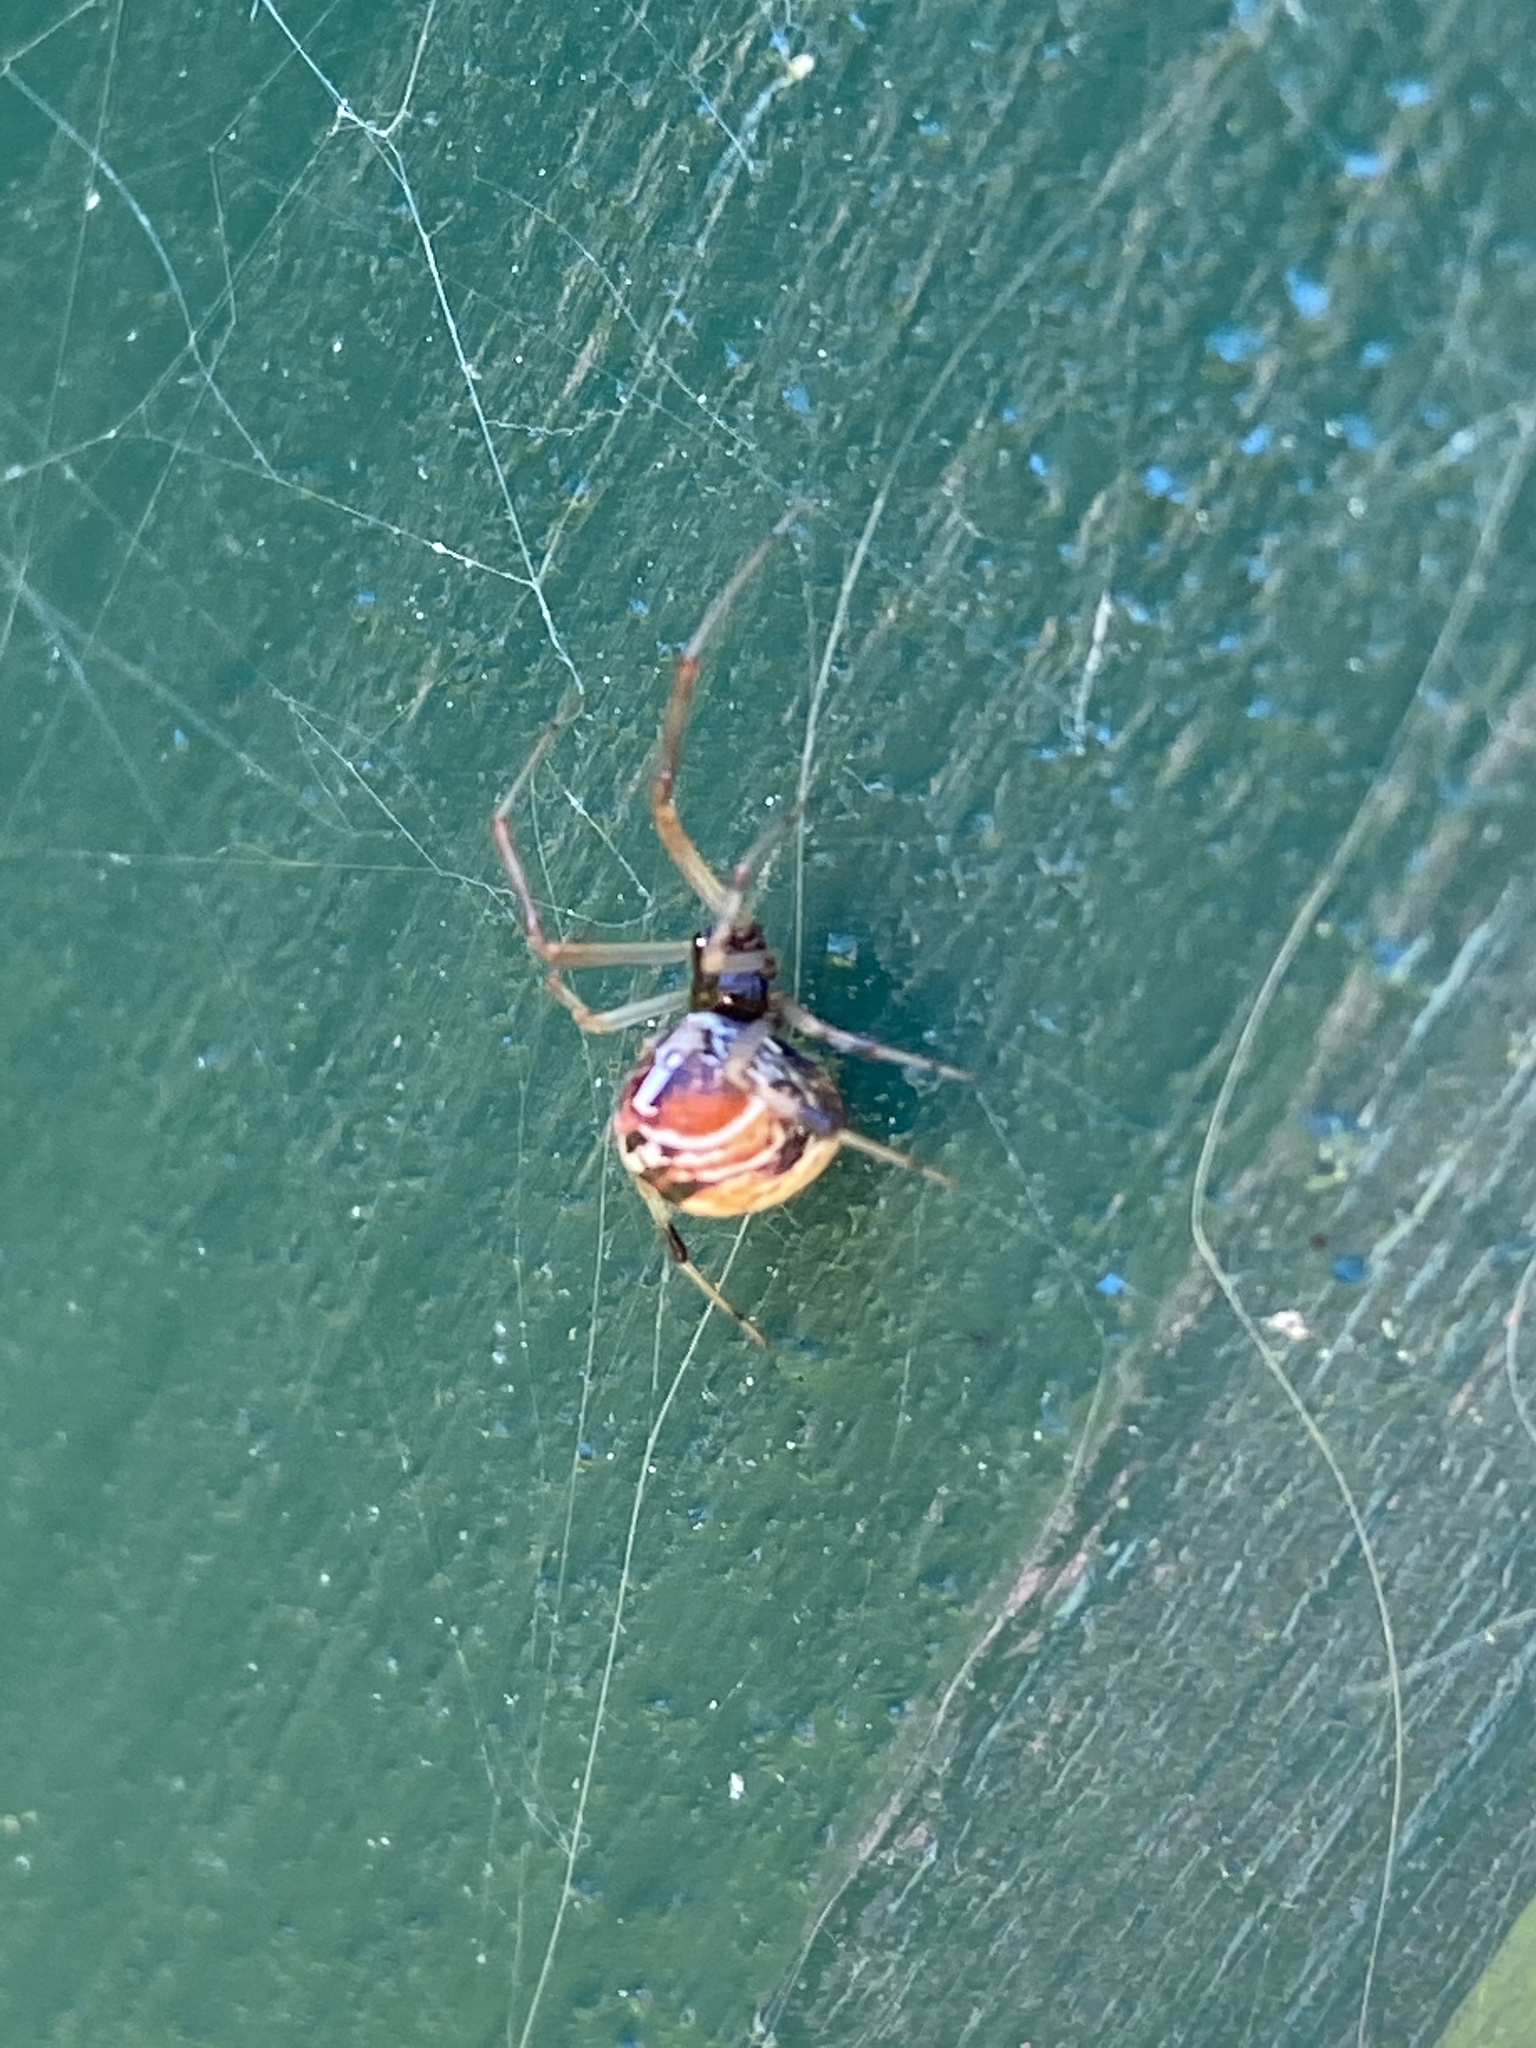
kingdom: Animalia
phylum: Arthropoda
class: Arachnida
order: Araneae
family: Theridiidae
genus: Parasteatoda
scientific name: Parasteatoda lunata
